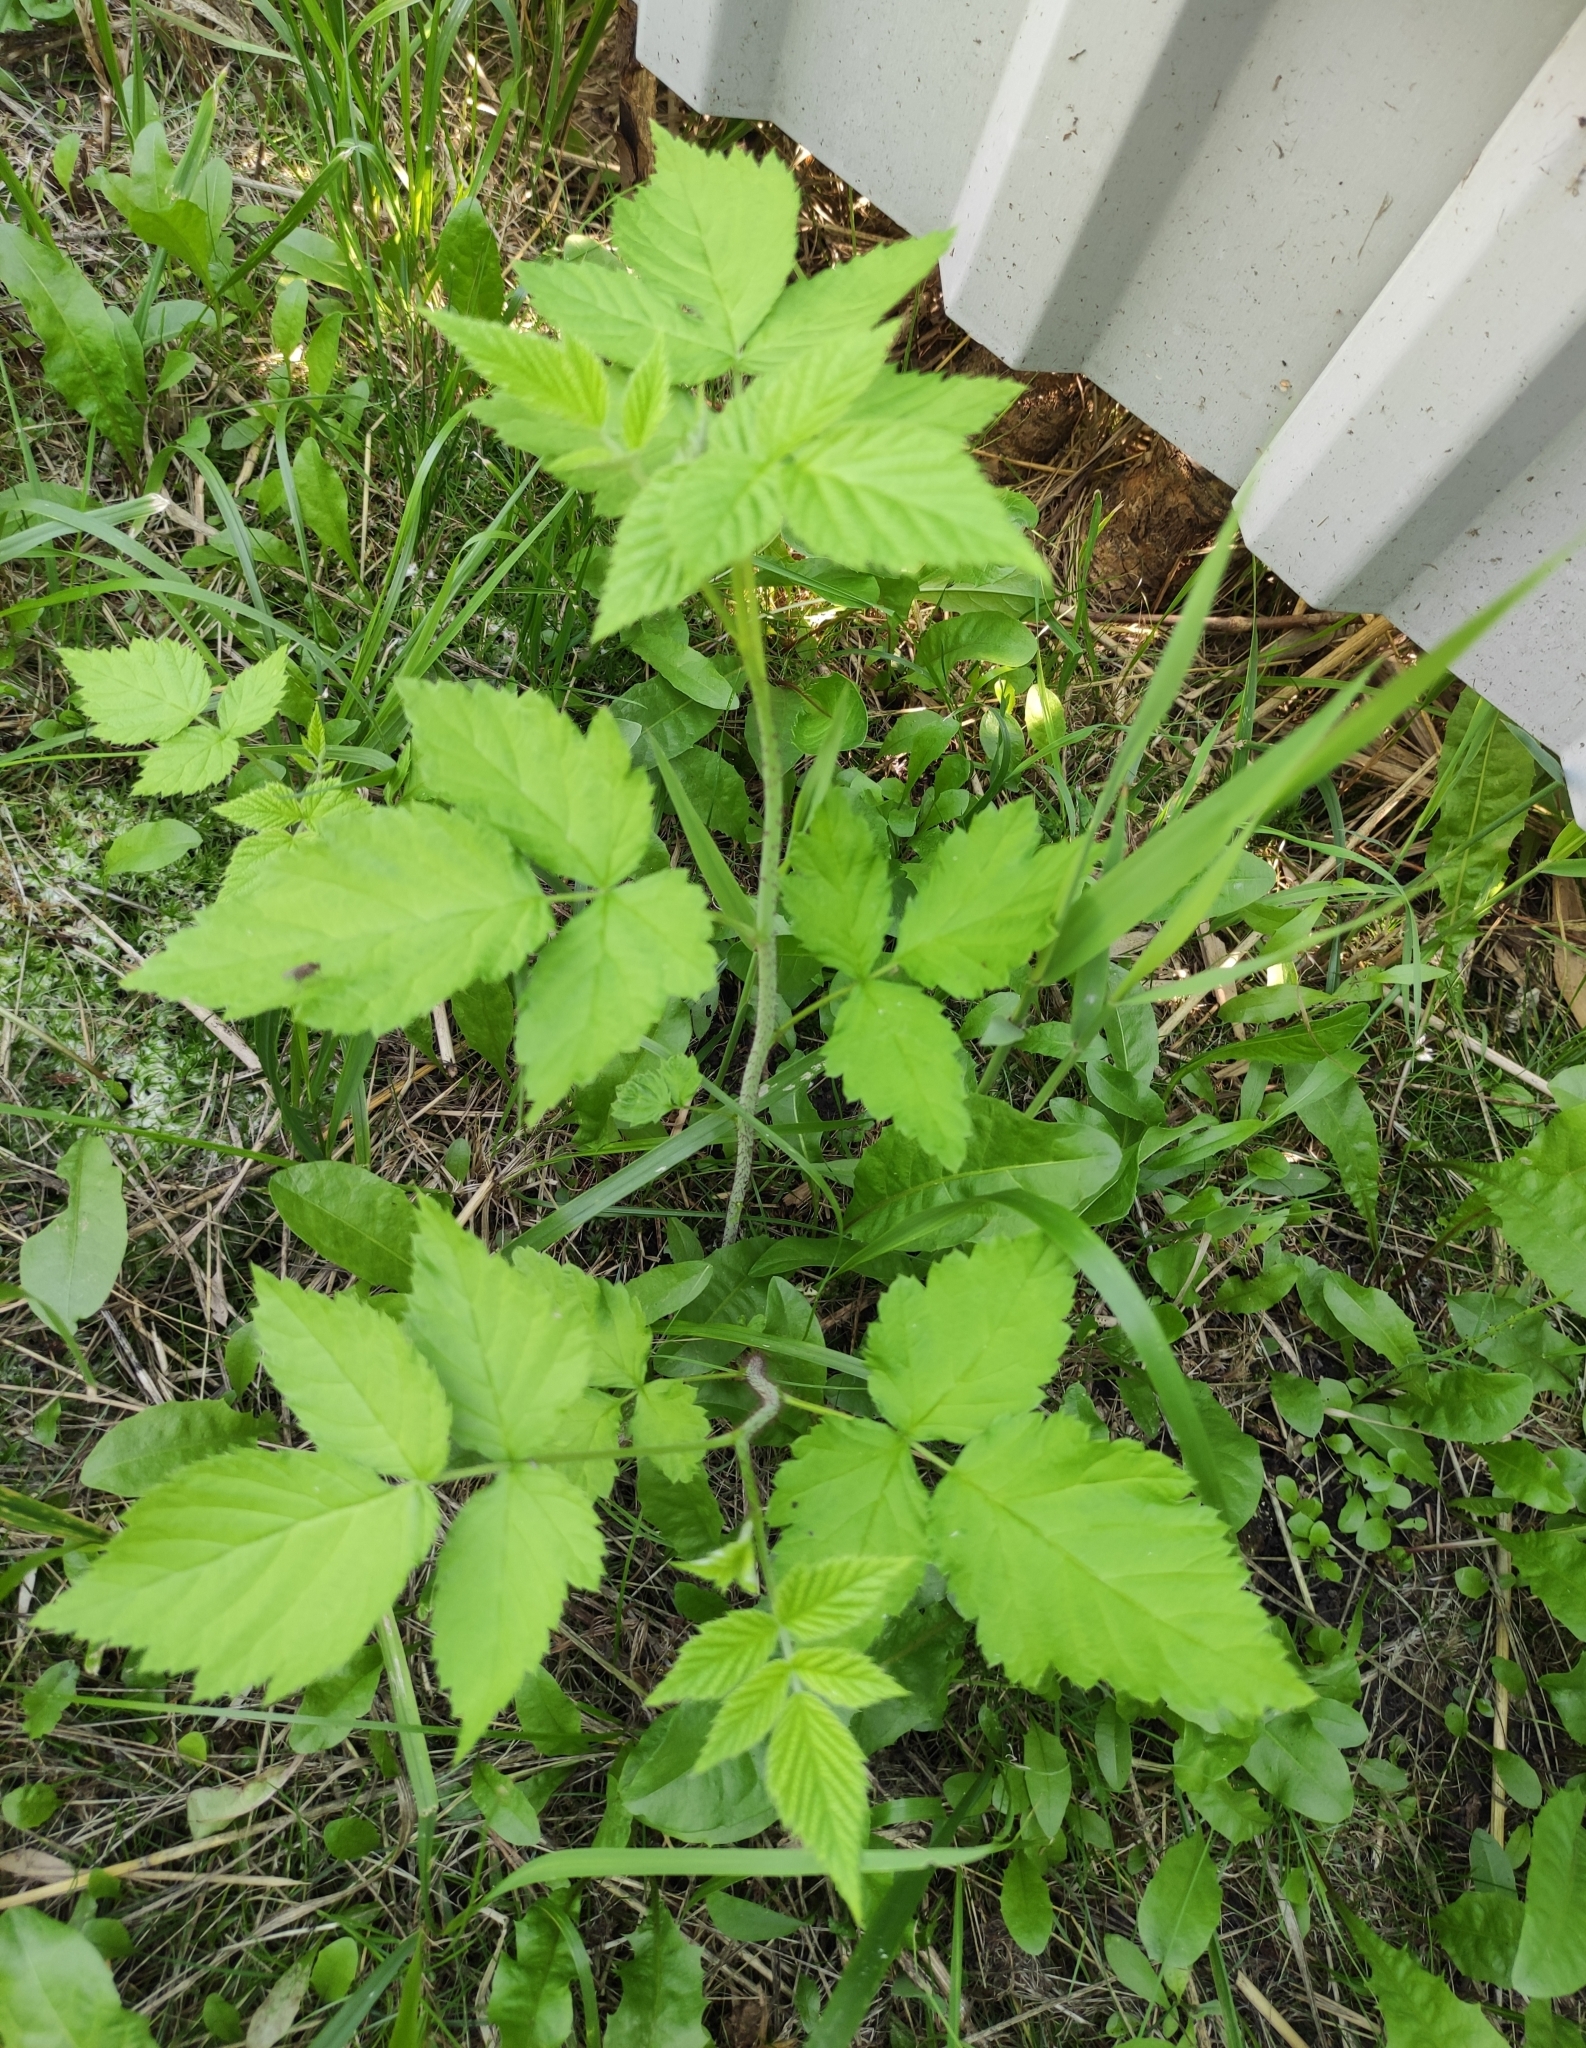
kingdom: Plantae
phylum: Tracheophyta
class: Magnoliopsida
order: Rosales
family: Rosaceae
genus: Rubus
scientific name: Rubus idaeus
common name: Raspberry
